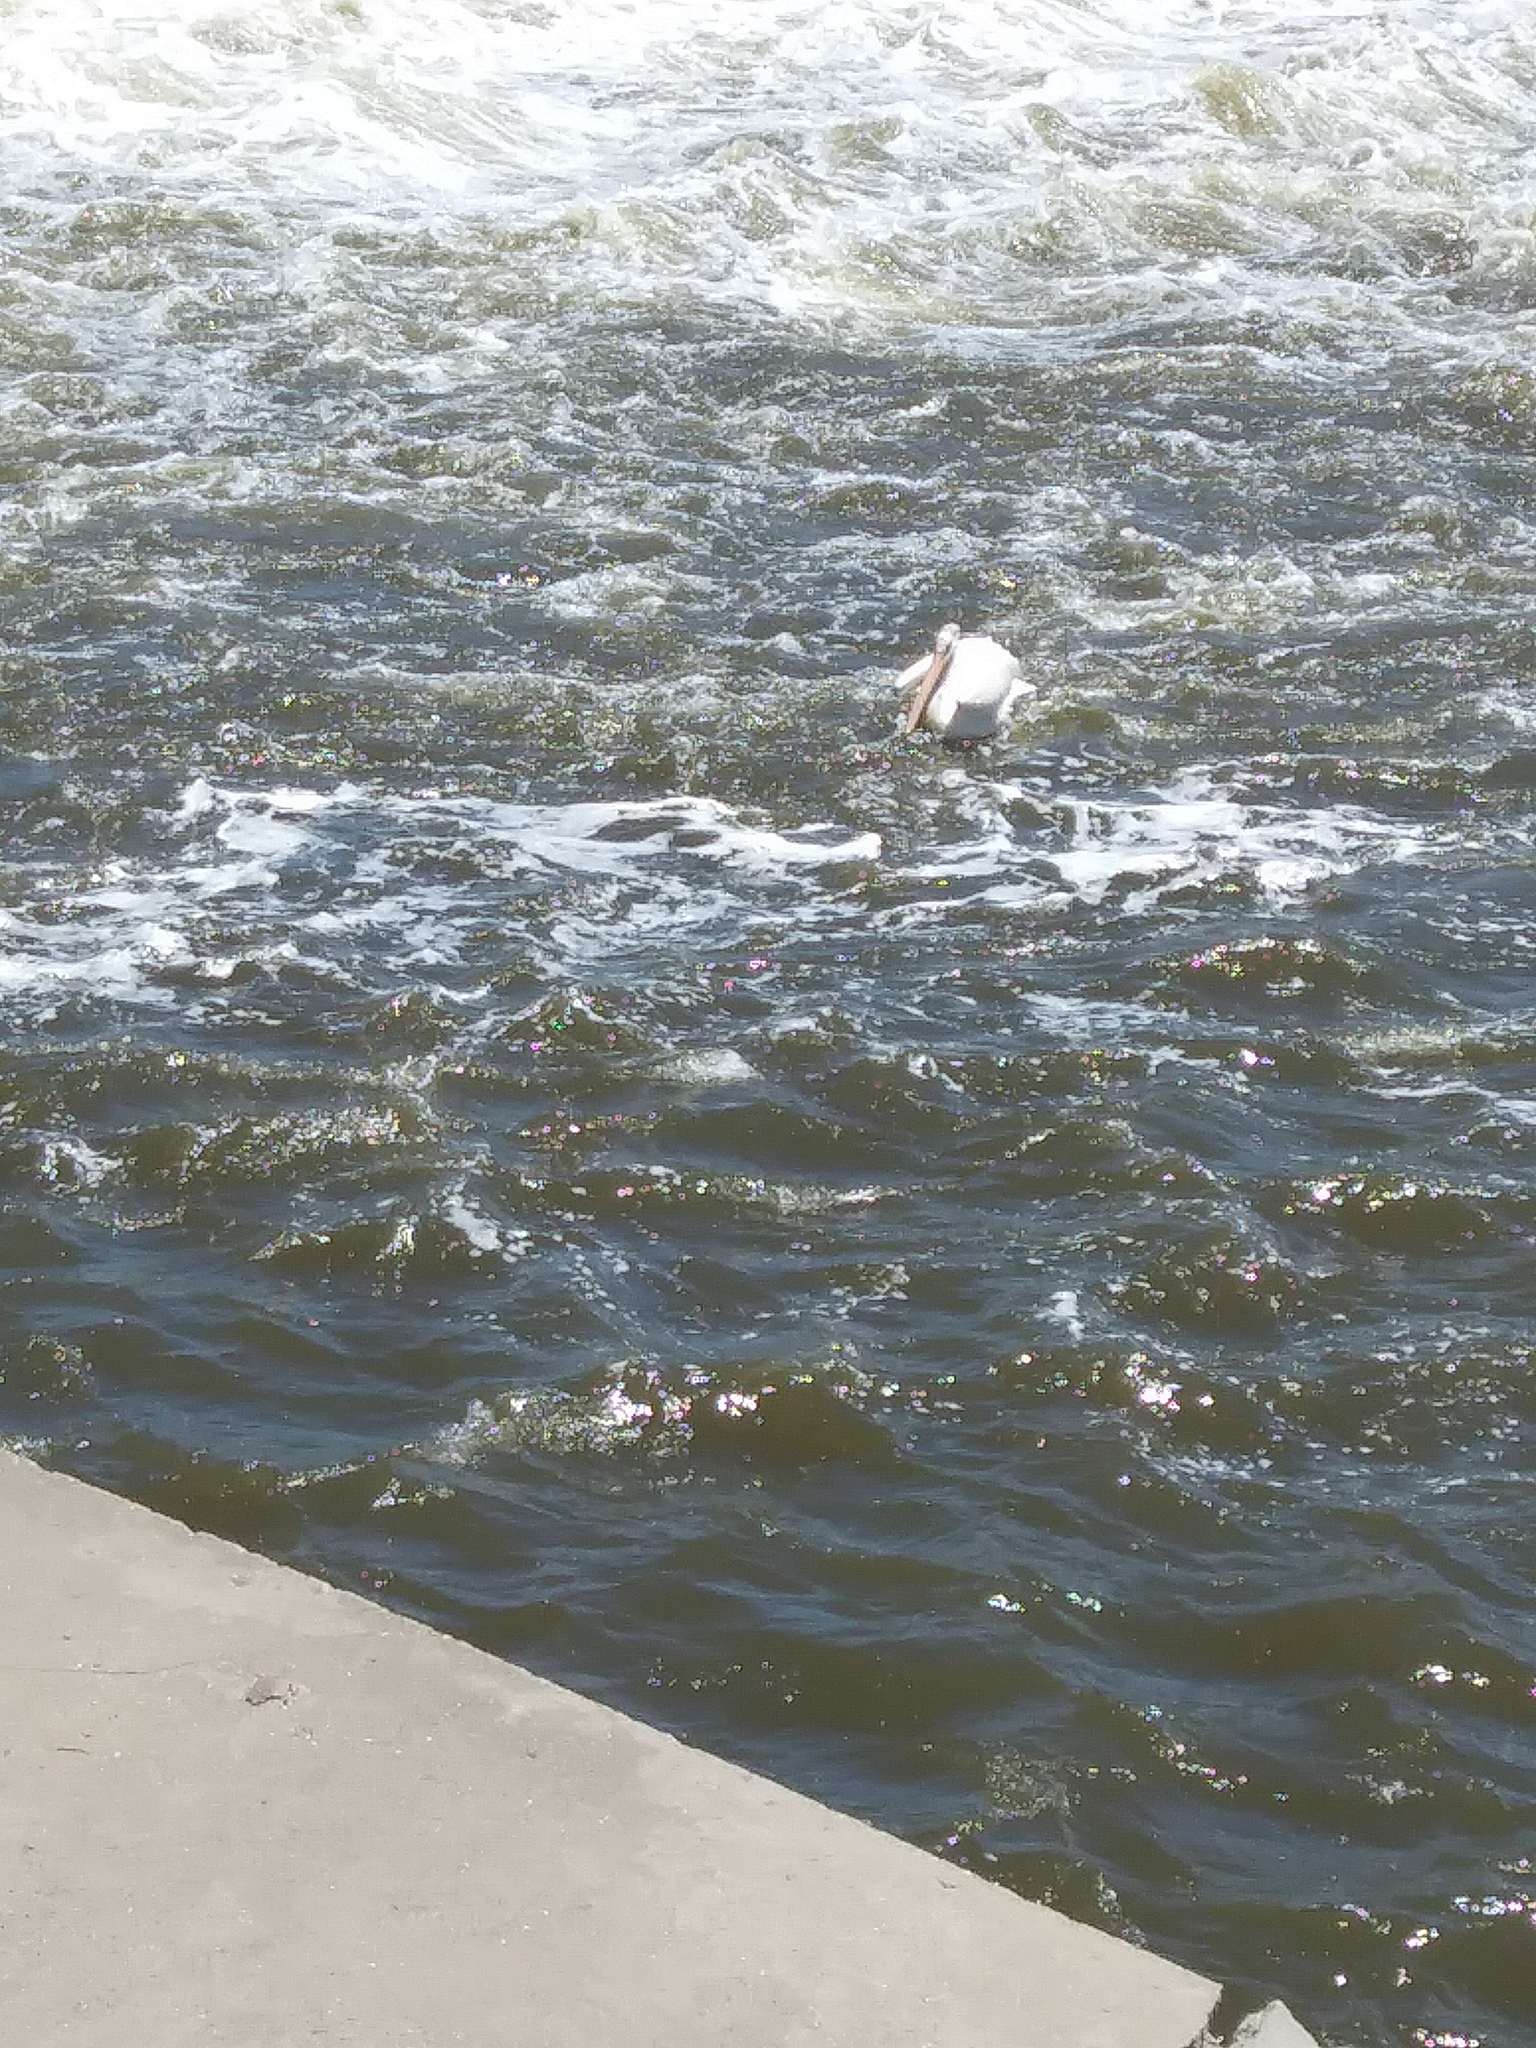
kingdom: Animalia
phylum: Chordata
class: Aves
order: Pelecaniformes
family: Pelecanidae
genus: Pelecanus
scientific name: Pelecanus erythrorhynchos
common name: American white pelican
